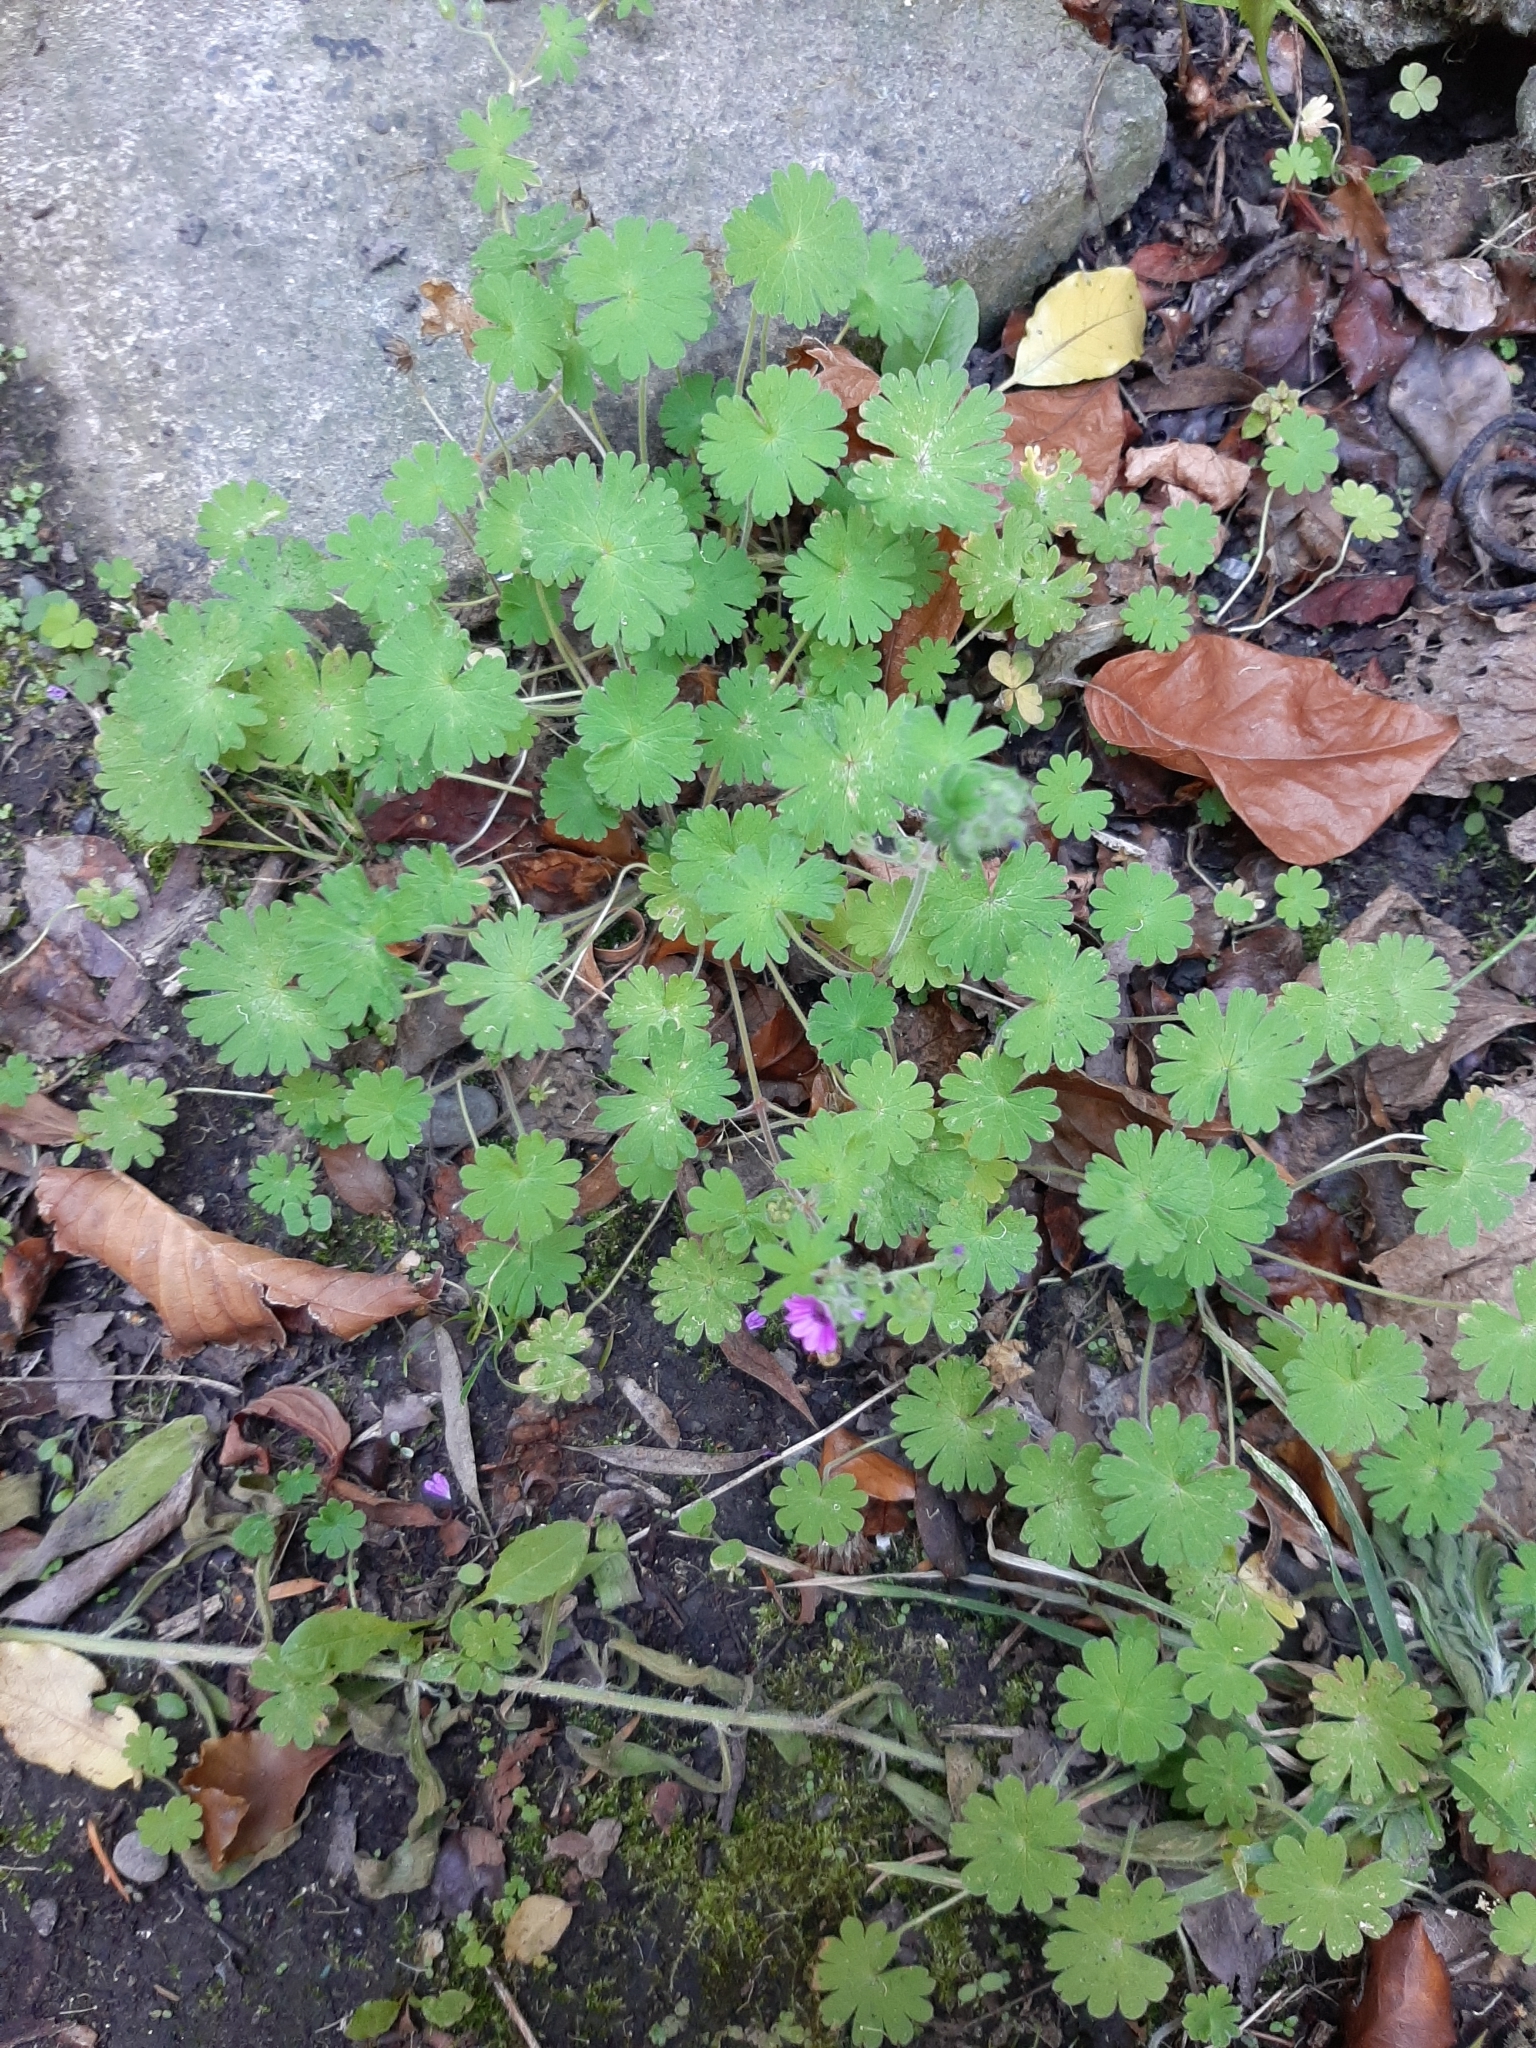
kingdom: Plantae
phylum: Tracheophyta
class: Magnoliopsida
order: Geraniales
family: Geraniaceae
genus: Geranium
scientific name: Geranium molle
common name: Dove's-foot crane's-bill
